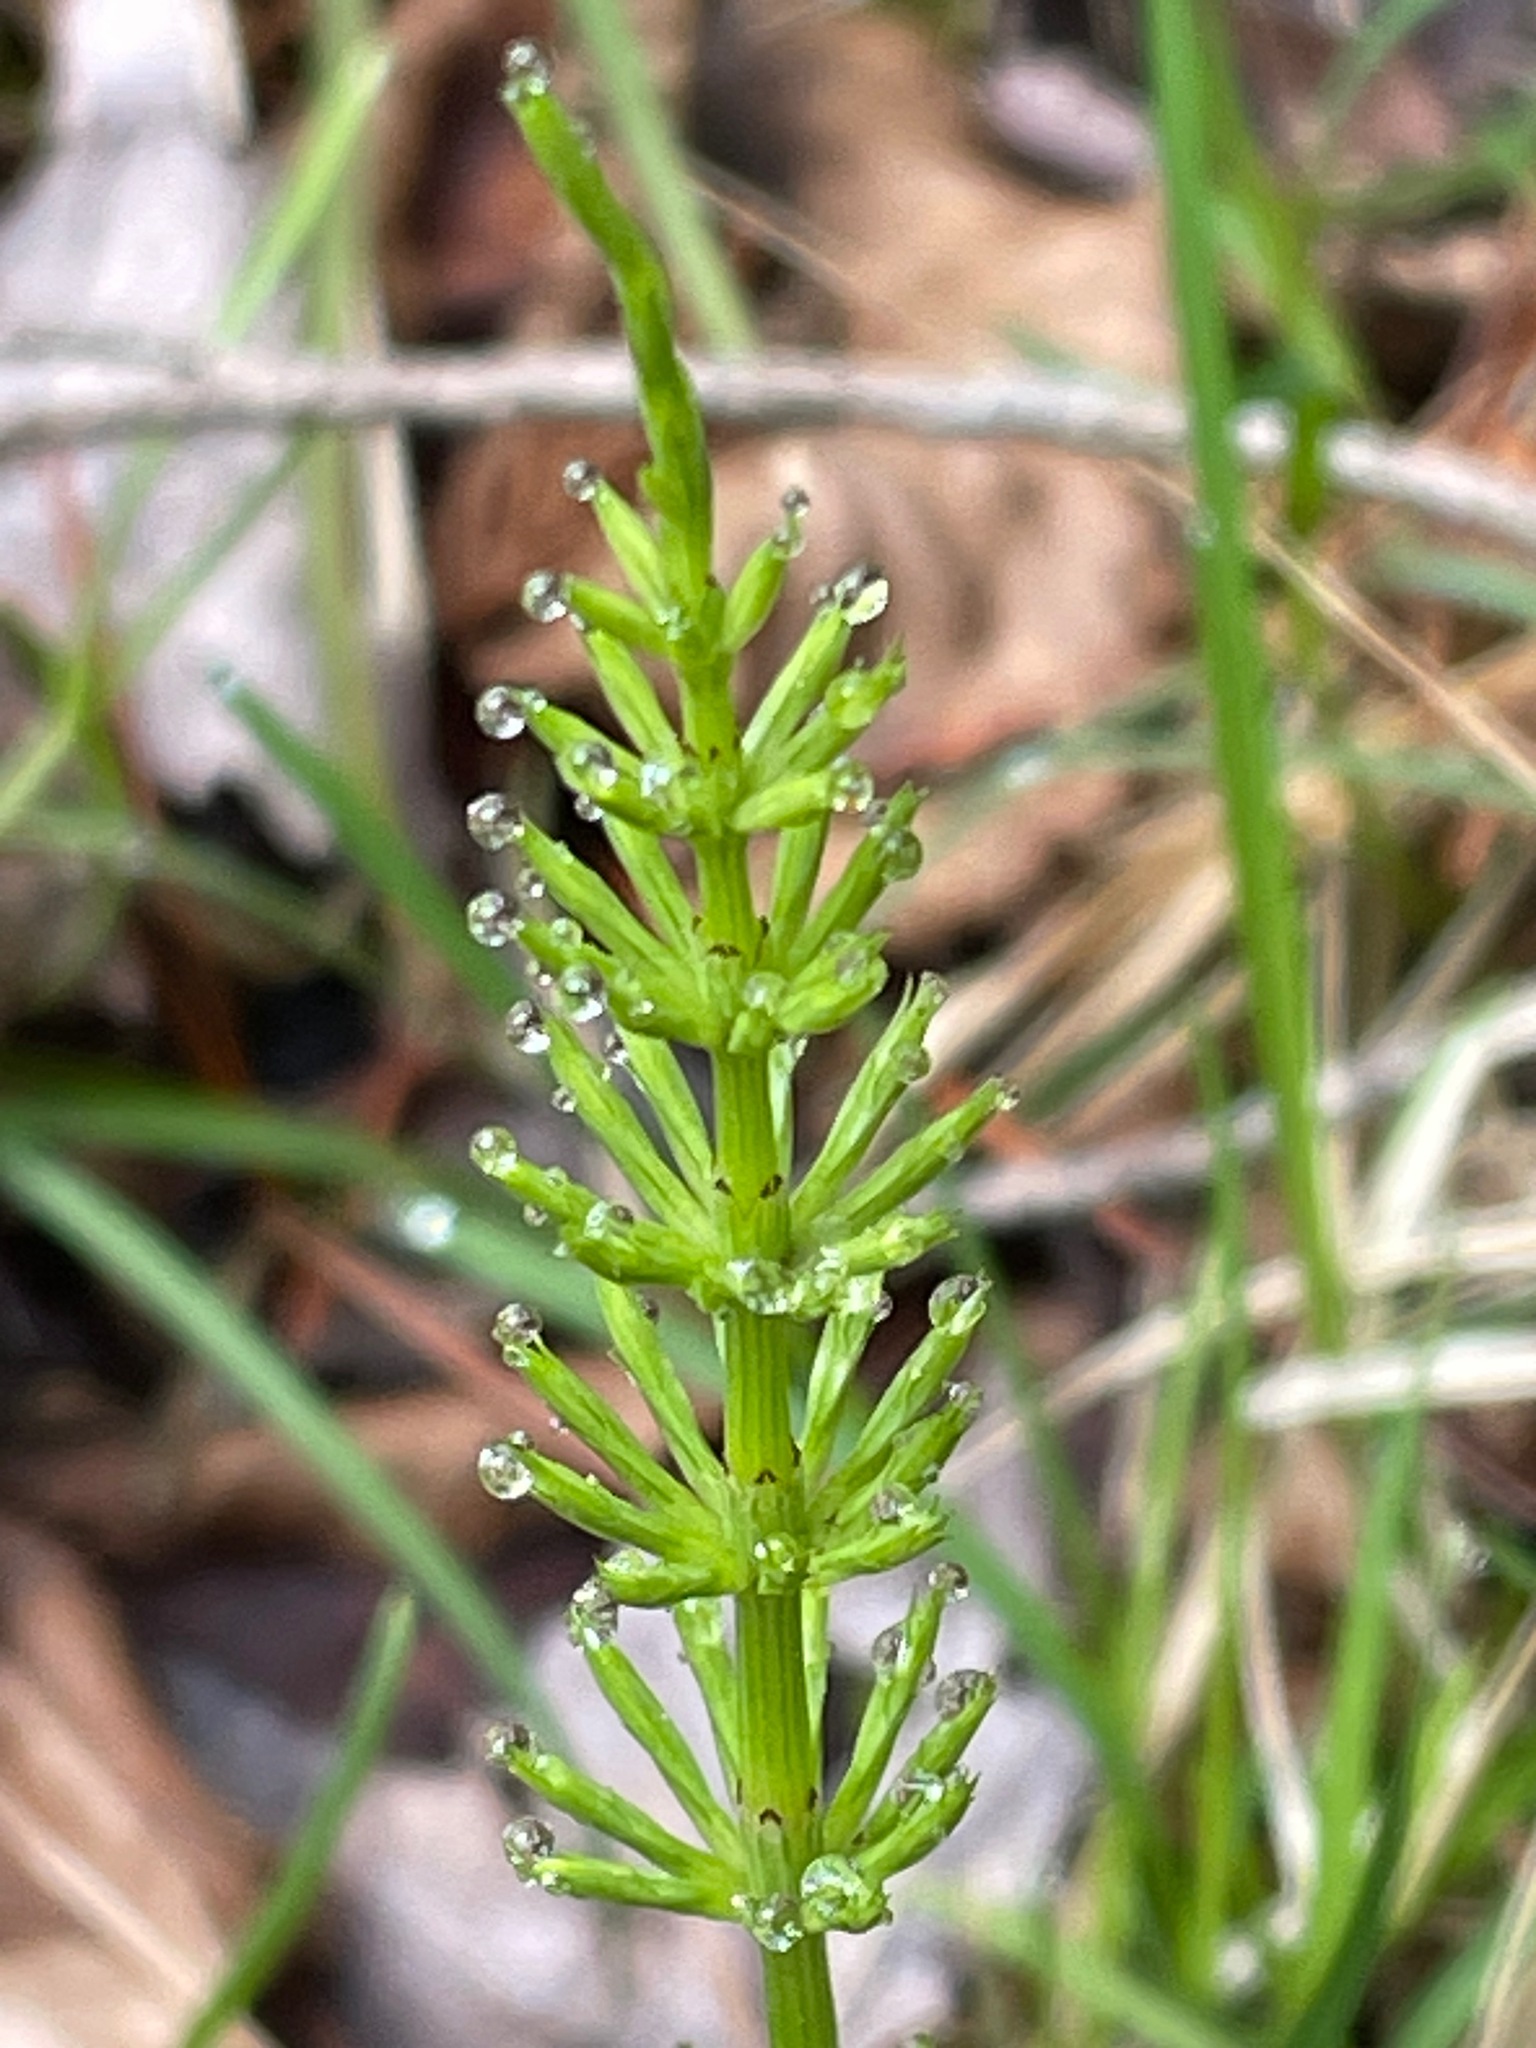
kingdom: Plantae
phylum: Tracheophyta
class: Polypodiopsida
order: Equisetales
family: Equisetaceae
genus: Equisetum
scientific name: Equisetum arvense
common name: Field horsetail
